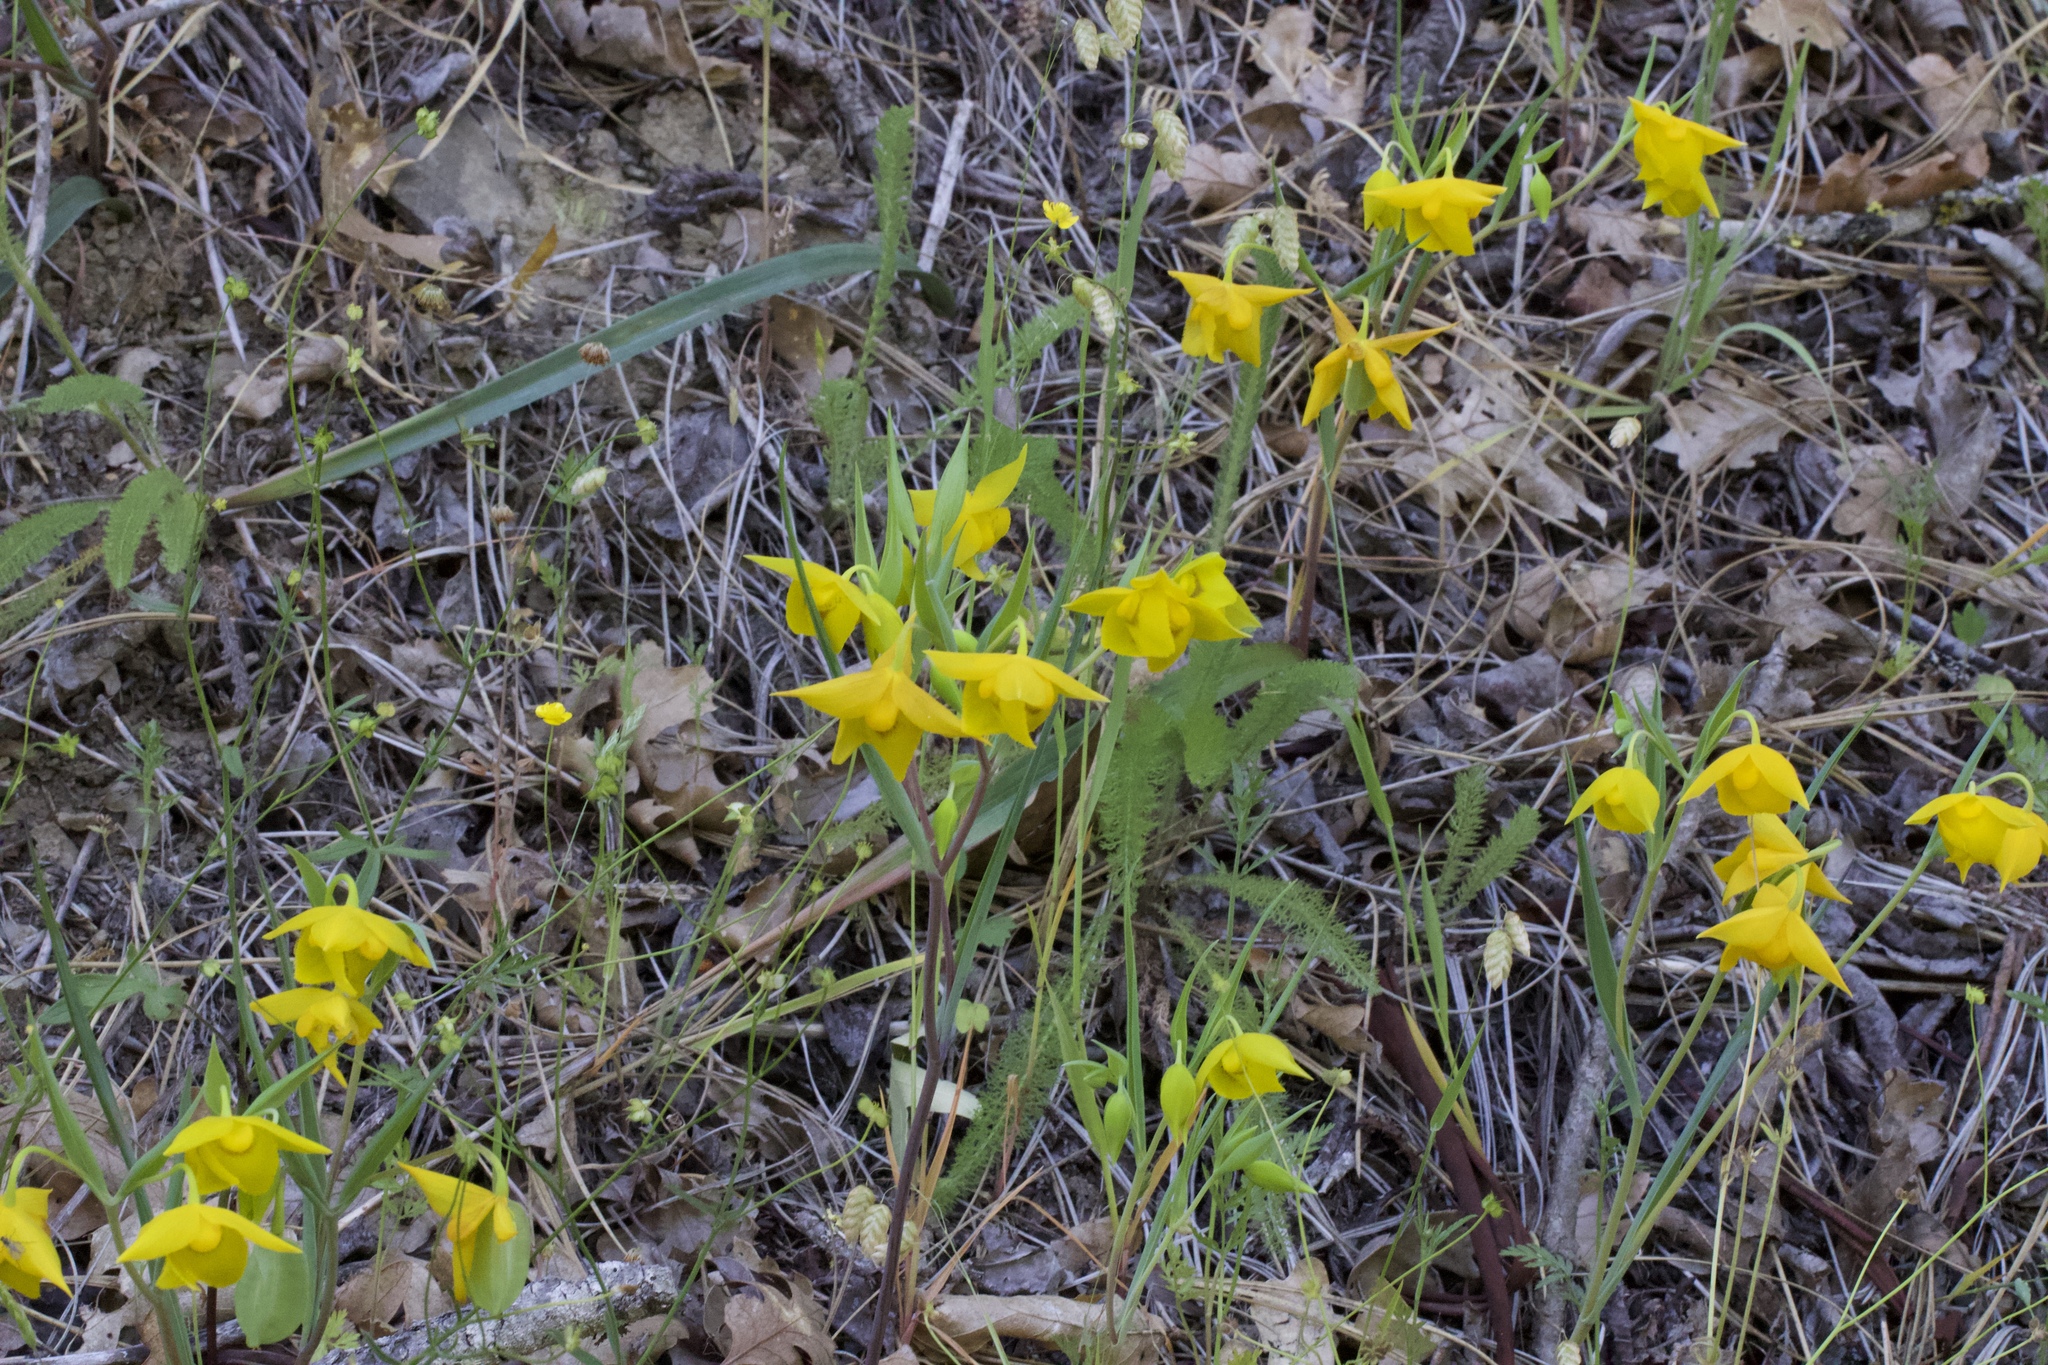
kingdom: Plantae
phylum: Tracheophyta
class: Liliopsida
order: Liliales
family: Liliaceae
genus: Calochortus
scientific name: Calochortus amabilis
